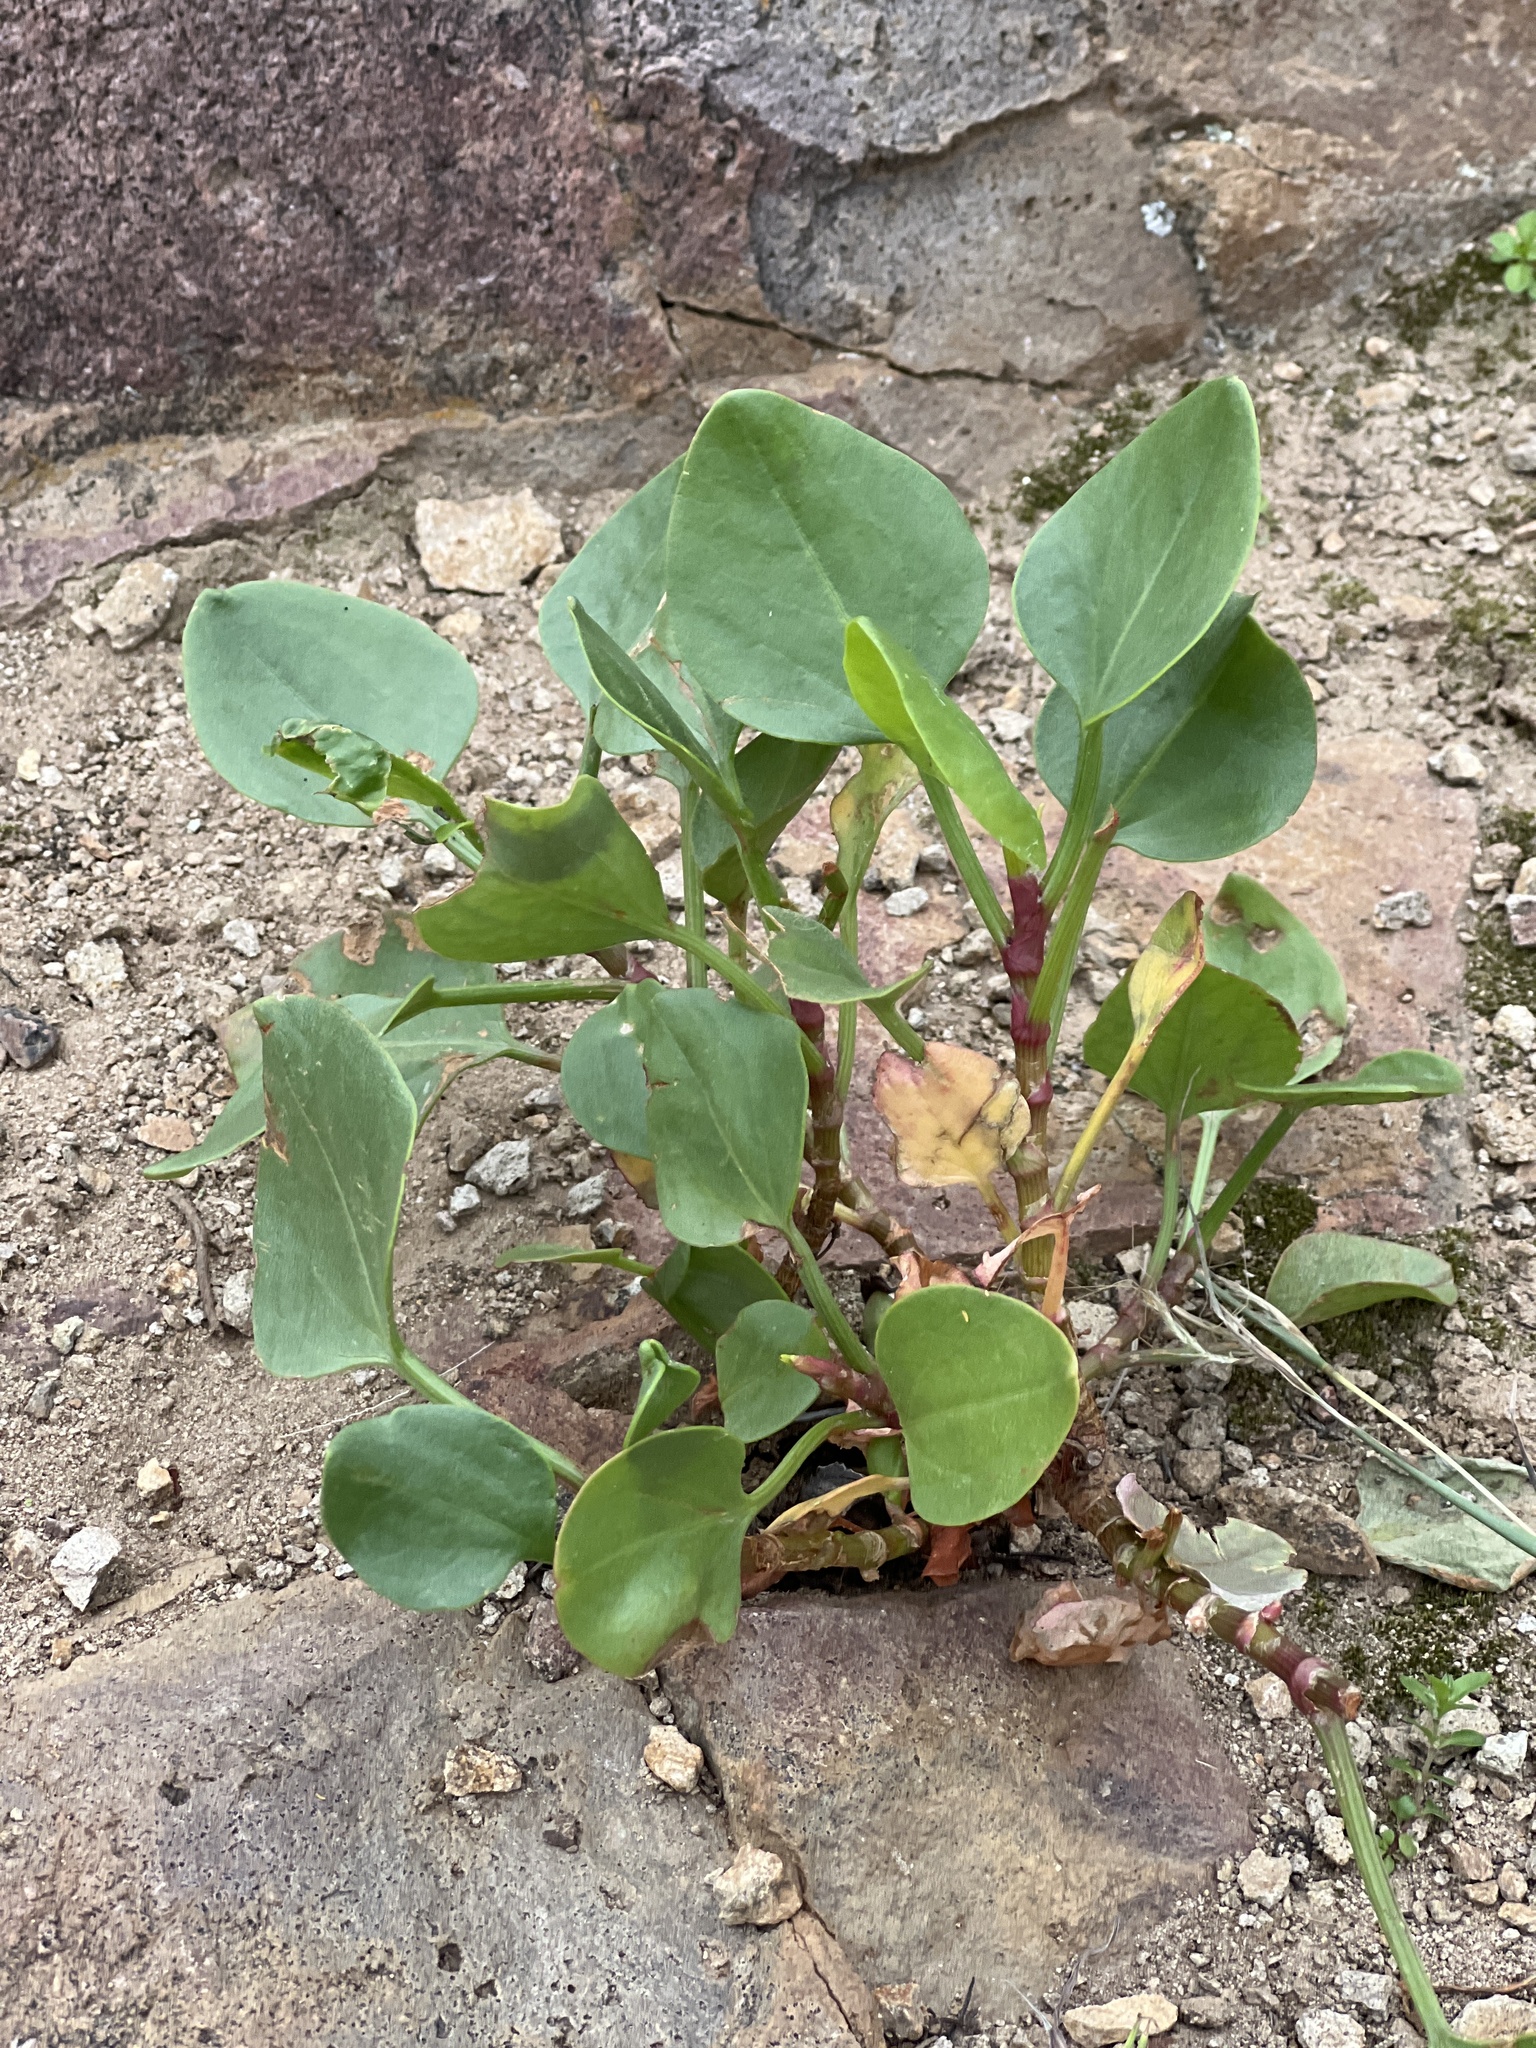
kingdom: Plantae
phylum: Tracheophyta
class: Magnoliopsida
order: Caryophyllales
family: Polygonaceae
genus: Rumex
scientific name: Rumex lunaria
